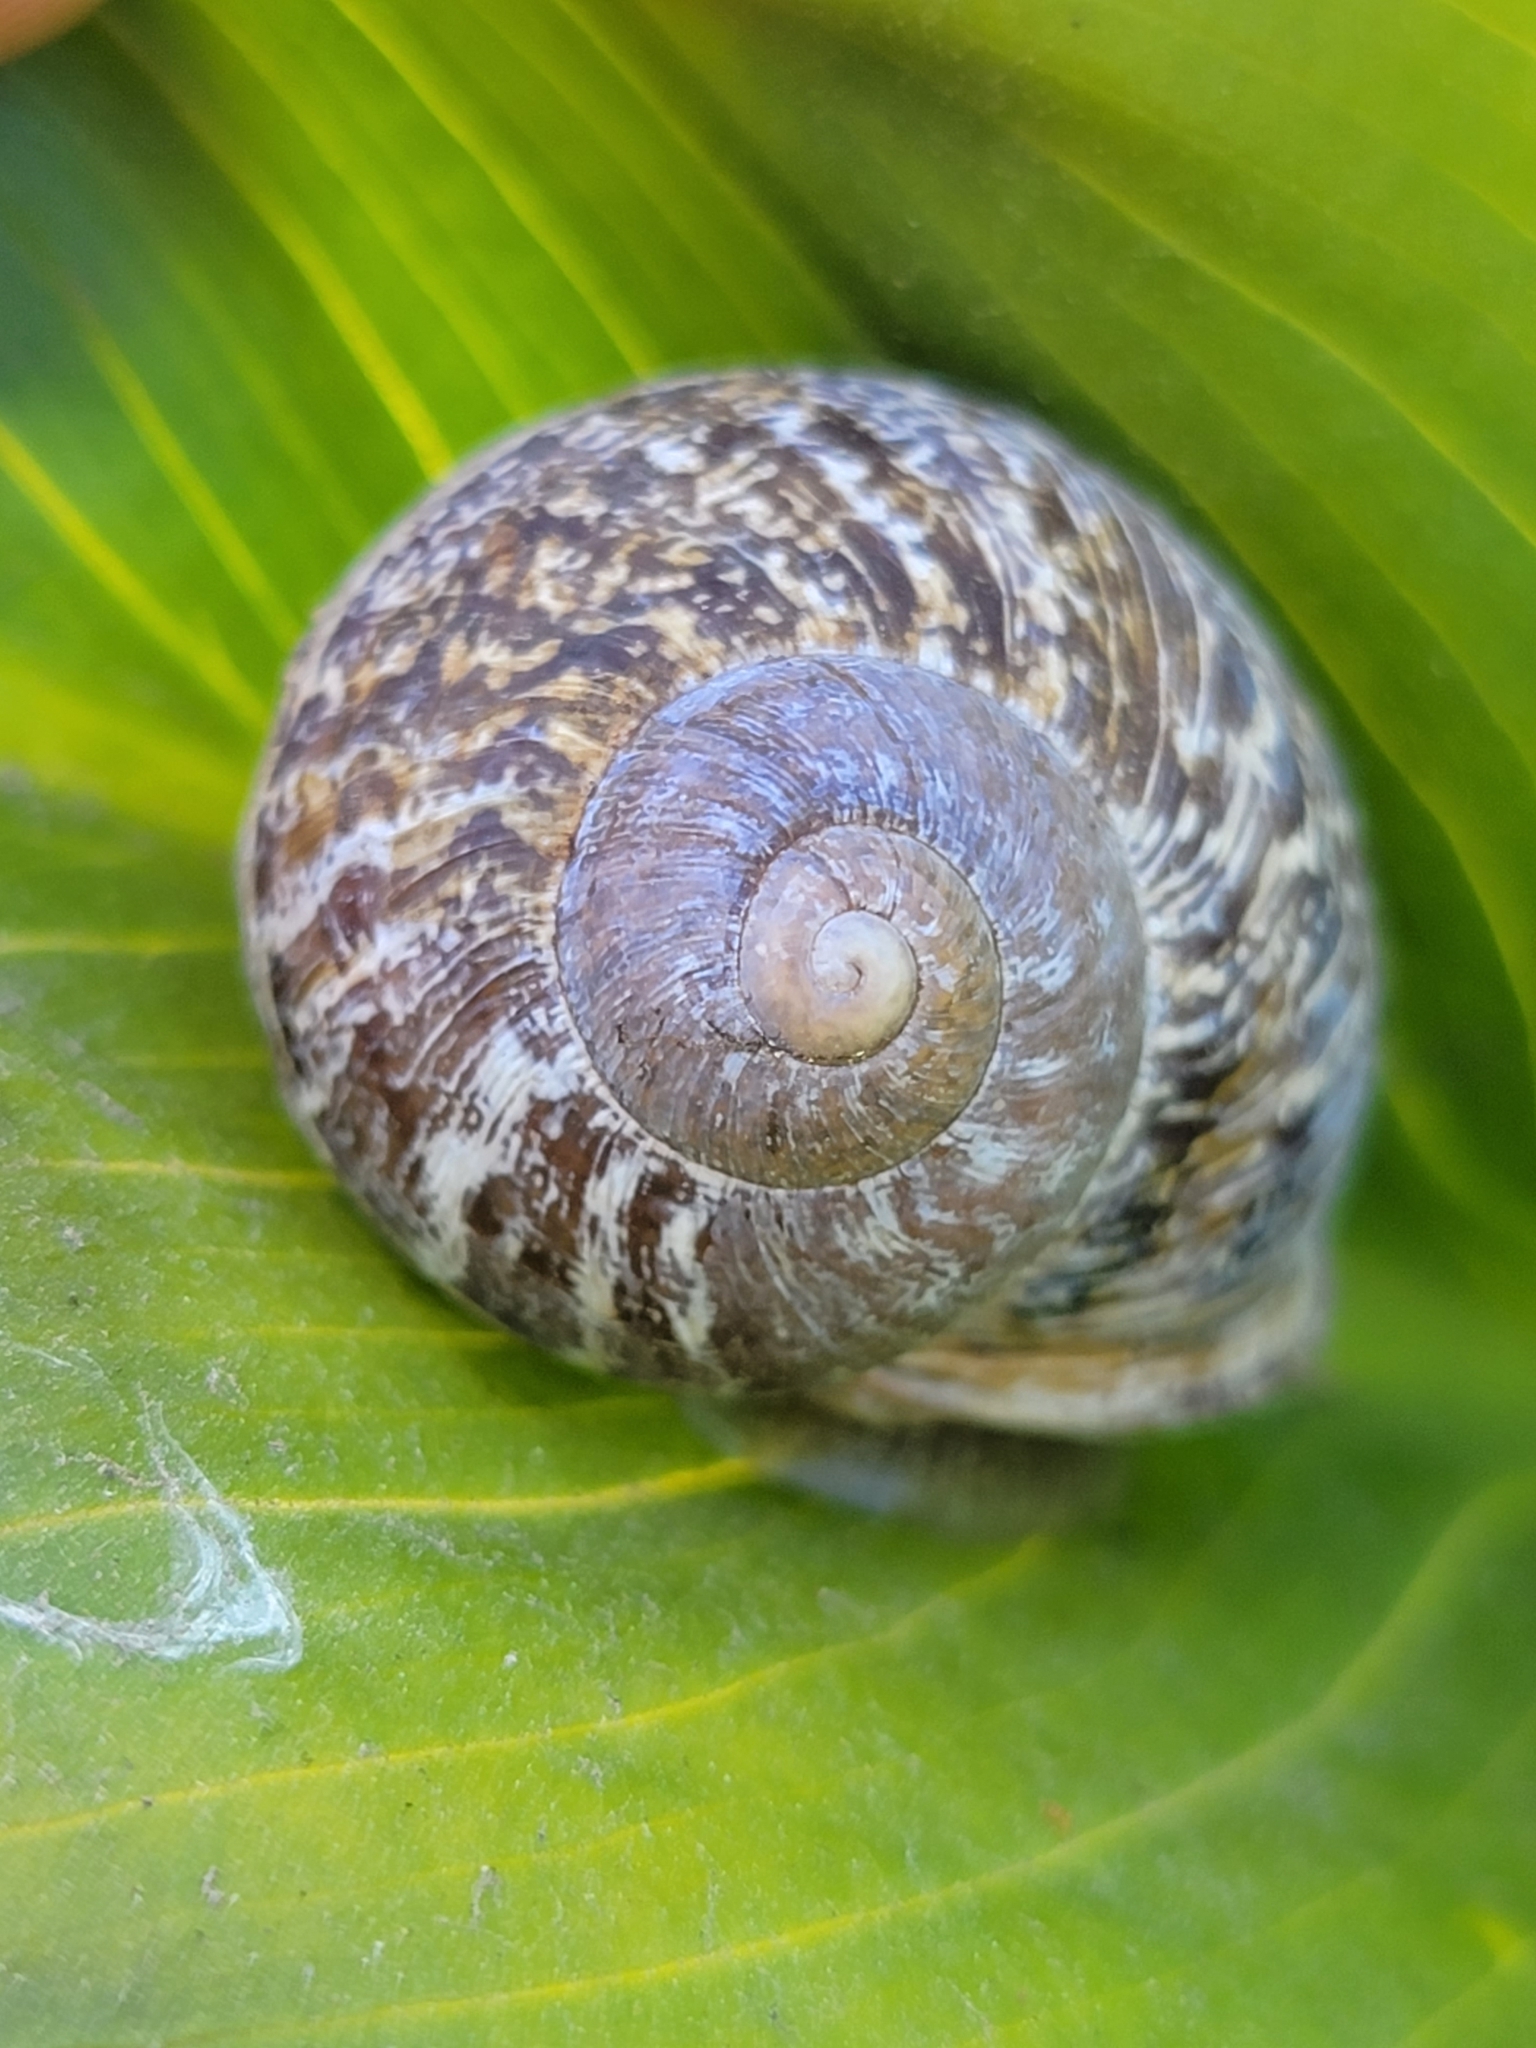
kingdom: Animalia
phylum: Mollusca
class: Gastropoda
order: Stylommatophora
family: Helicidae
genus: Cornu
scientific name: Cornu aspersum
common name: Brown garden snail
